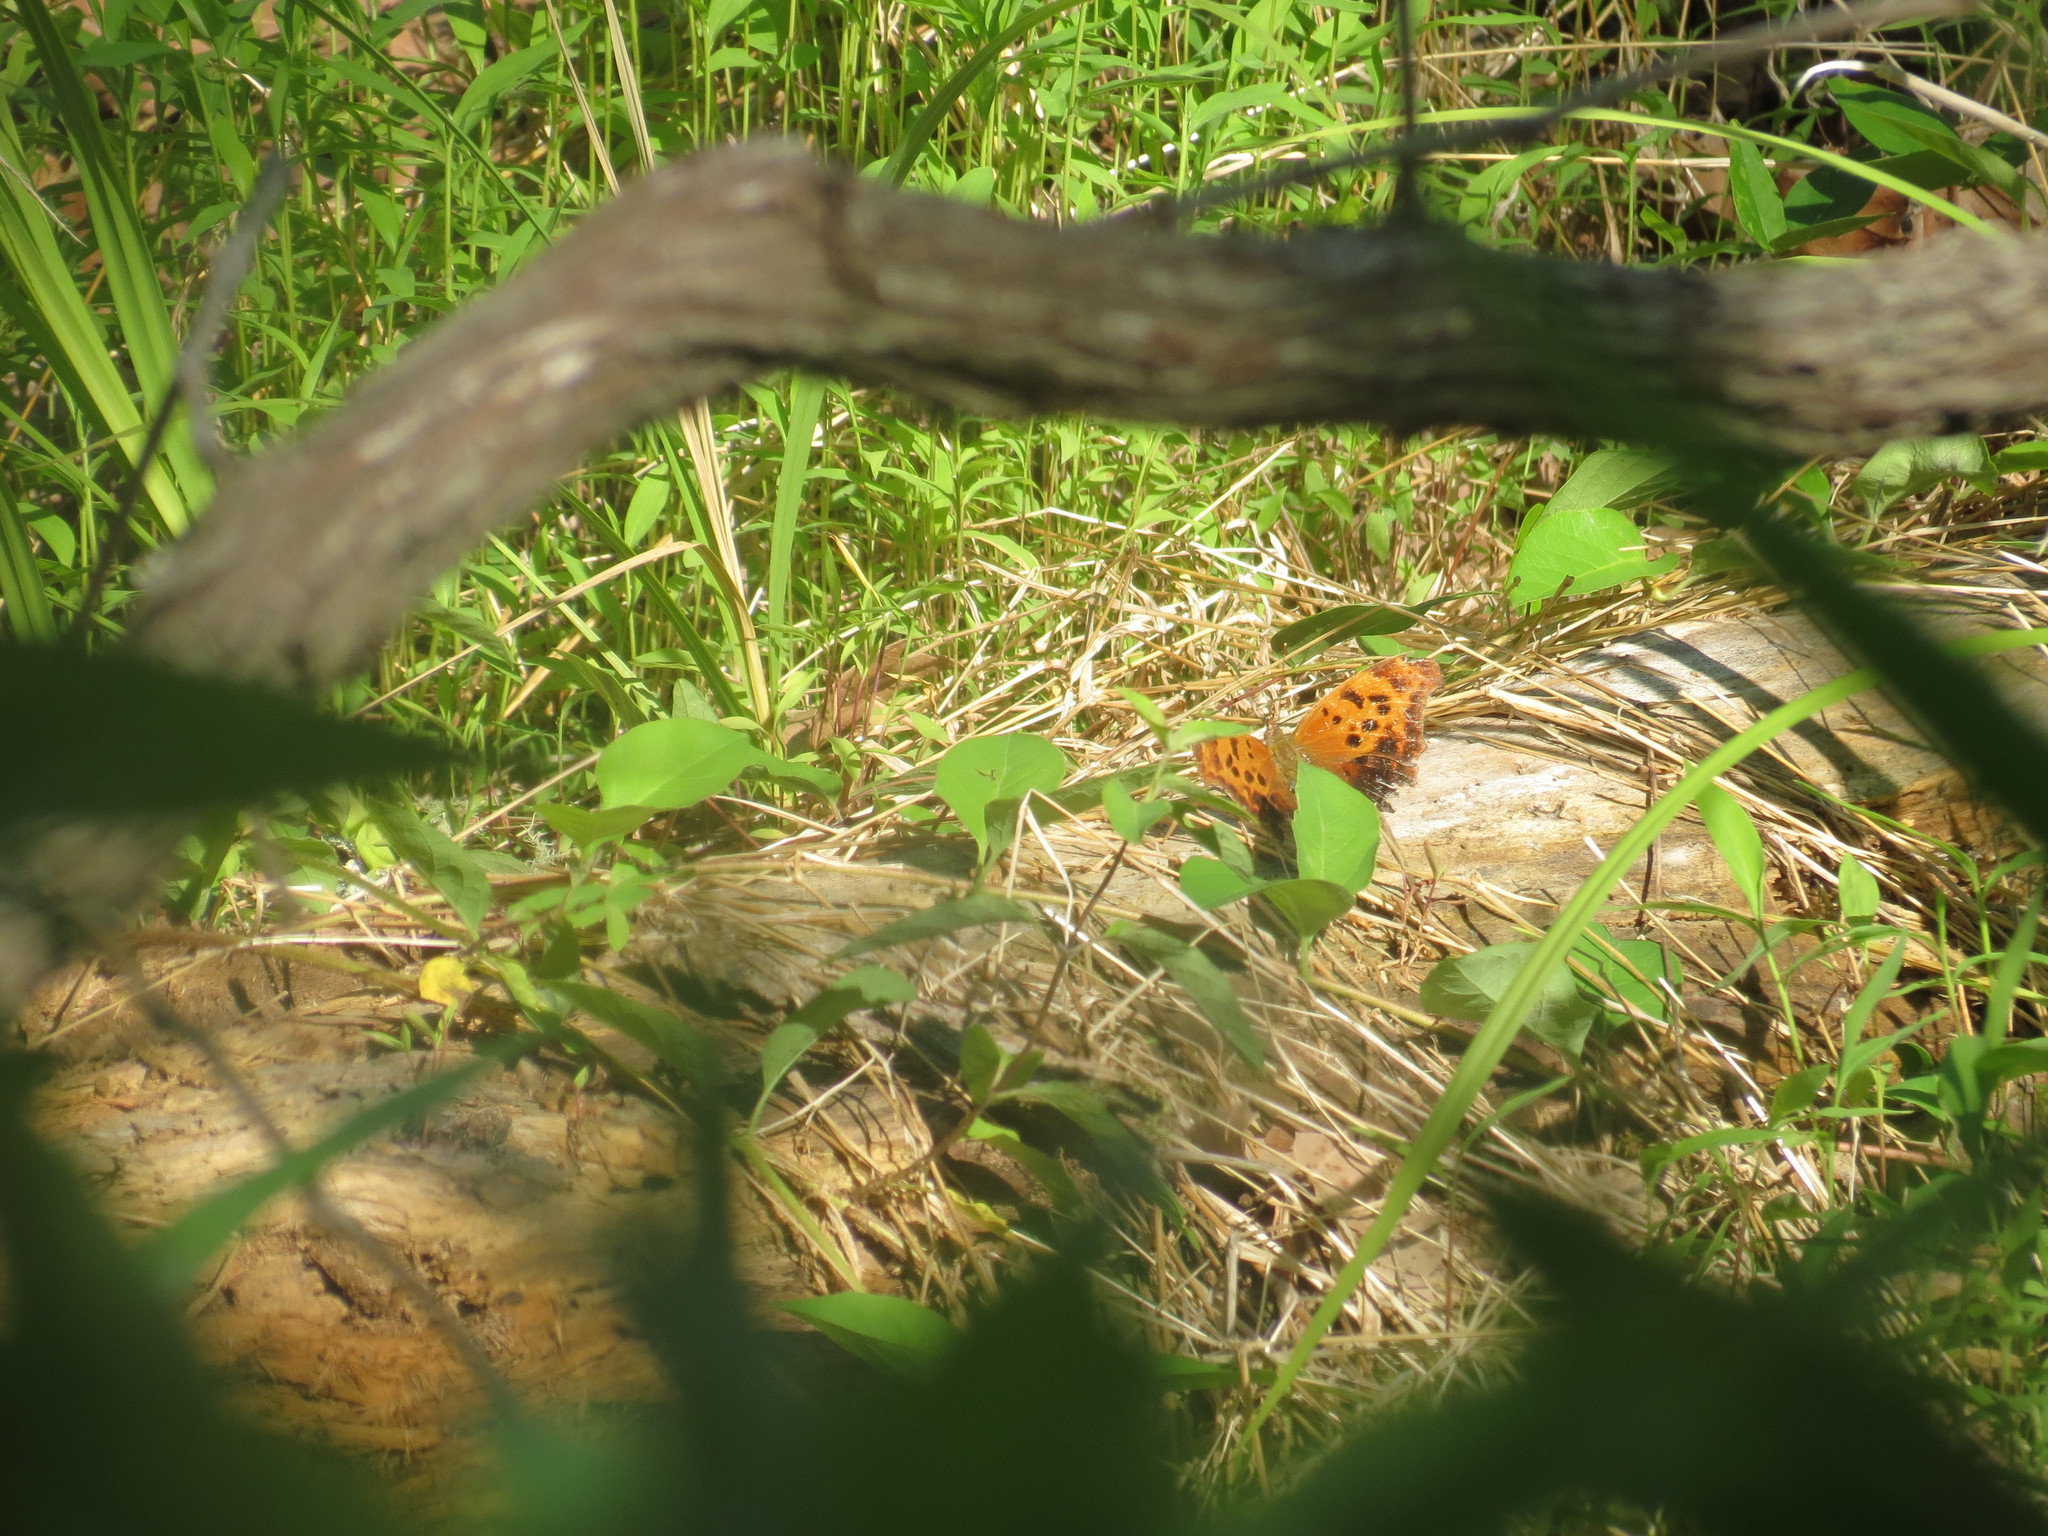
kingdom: Animalia
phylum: Arthropoda
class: Insecta
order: Lepidoptera
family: Nymphalidae
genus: Polygonia
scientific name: Polygonia interrogationis
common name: Question mark
